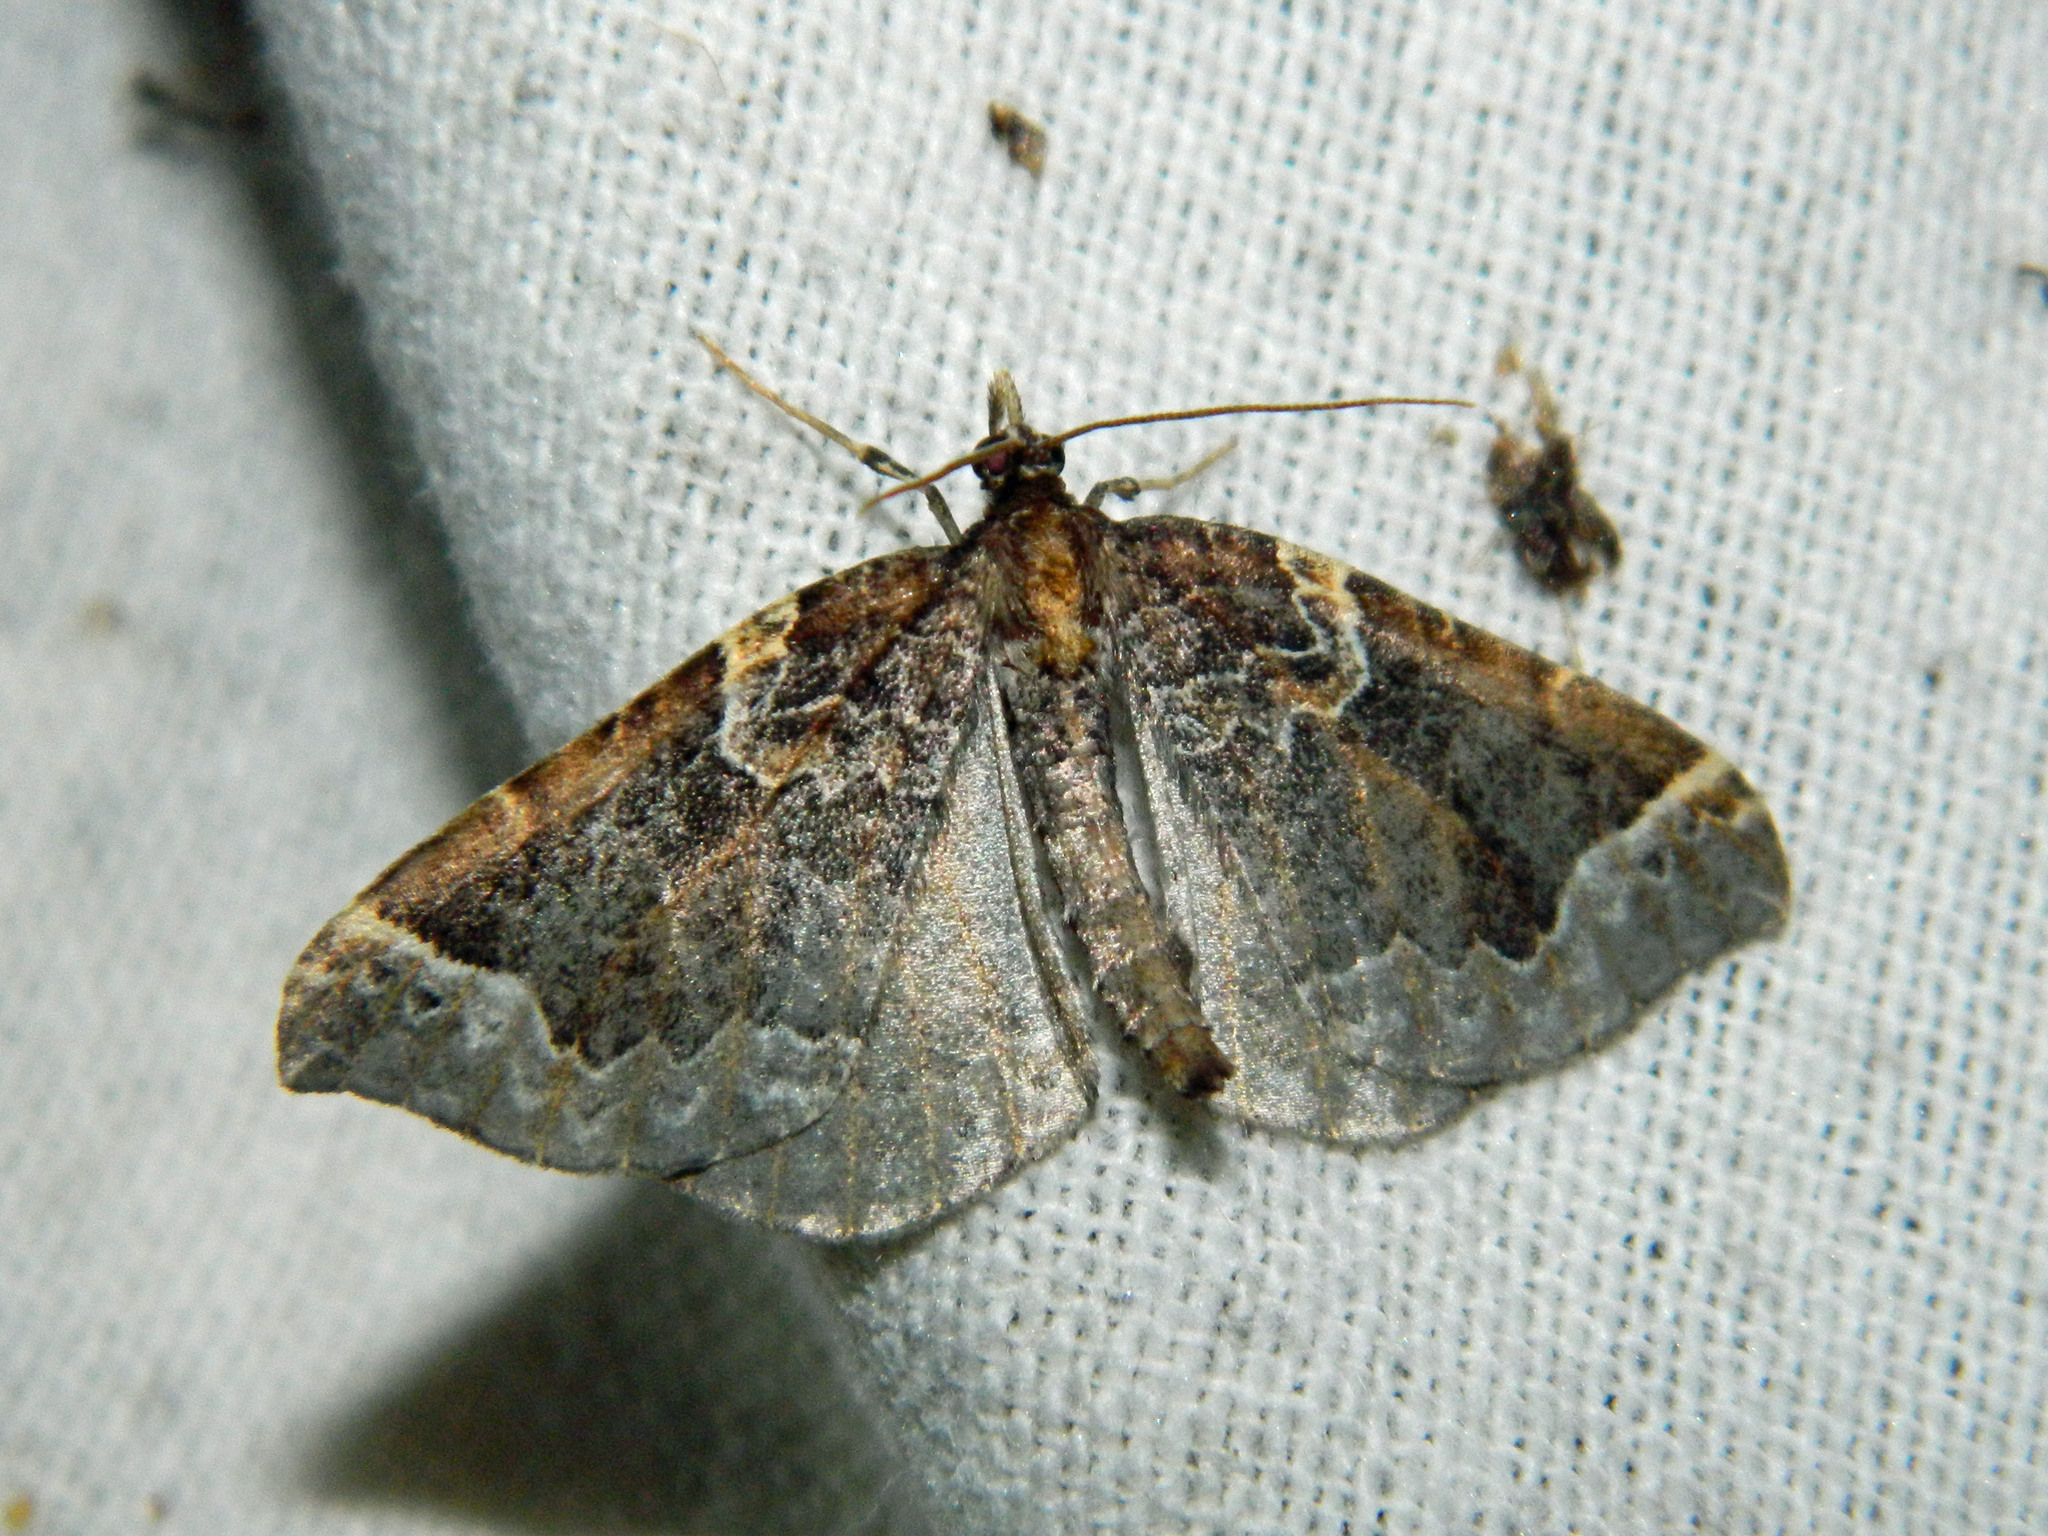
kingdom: Animalia
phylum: Arthropoda
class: Insecta
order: Lepidoptera
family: Geometridae
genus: Eulithis
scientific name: Eulithis flavibrunneata
